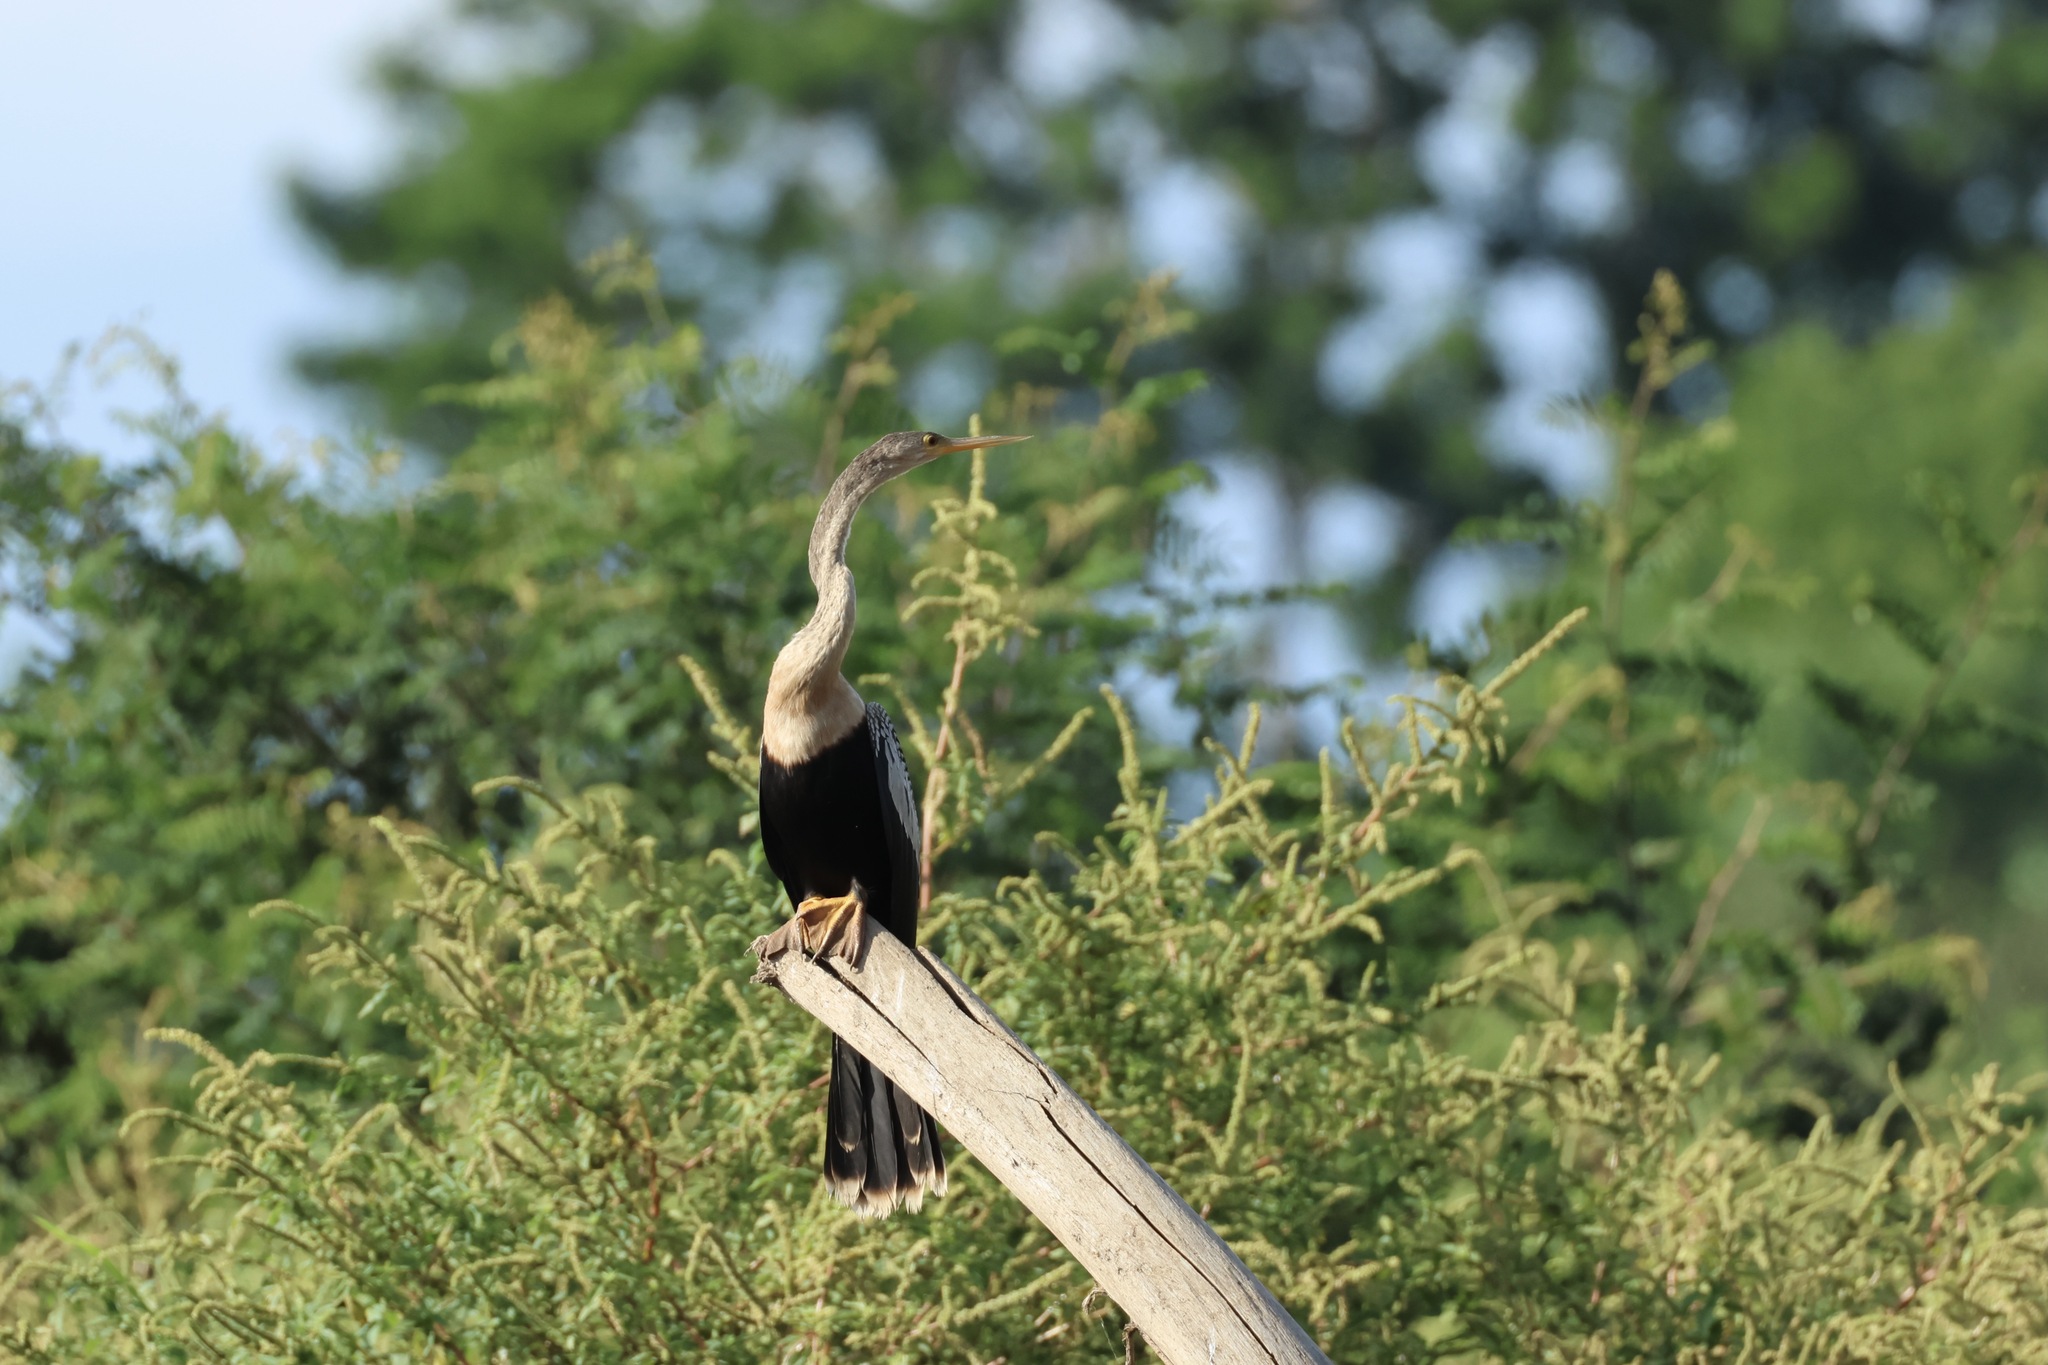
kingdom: Animalia
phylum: Chordata
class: Aves
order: Suliformes
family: Anhingidae
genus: Anhinga
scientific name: Anhinga anhinga
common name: Anhinga
